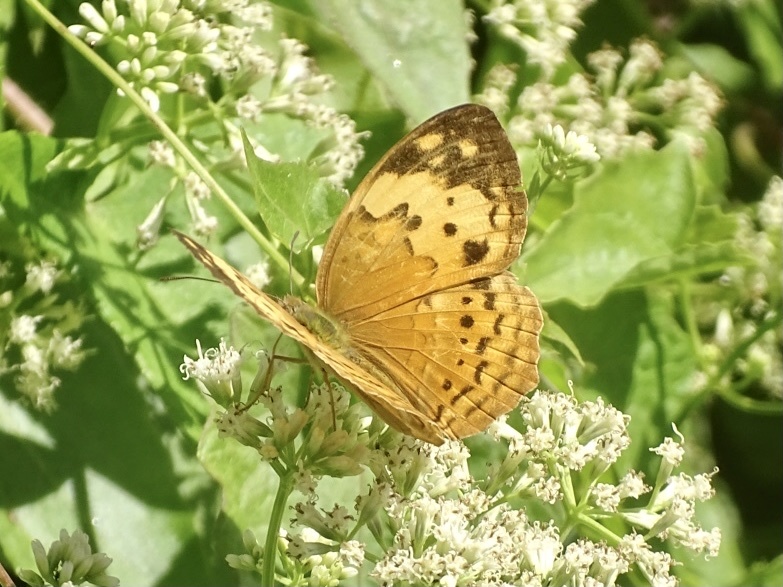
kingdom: Animalia
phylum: Arthropoda
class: Insecta
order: Lepidoptera
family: Nymphalidae
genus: Cupha
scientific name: Cupha erymanthis
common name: Rustic
